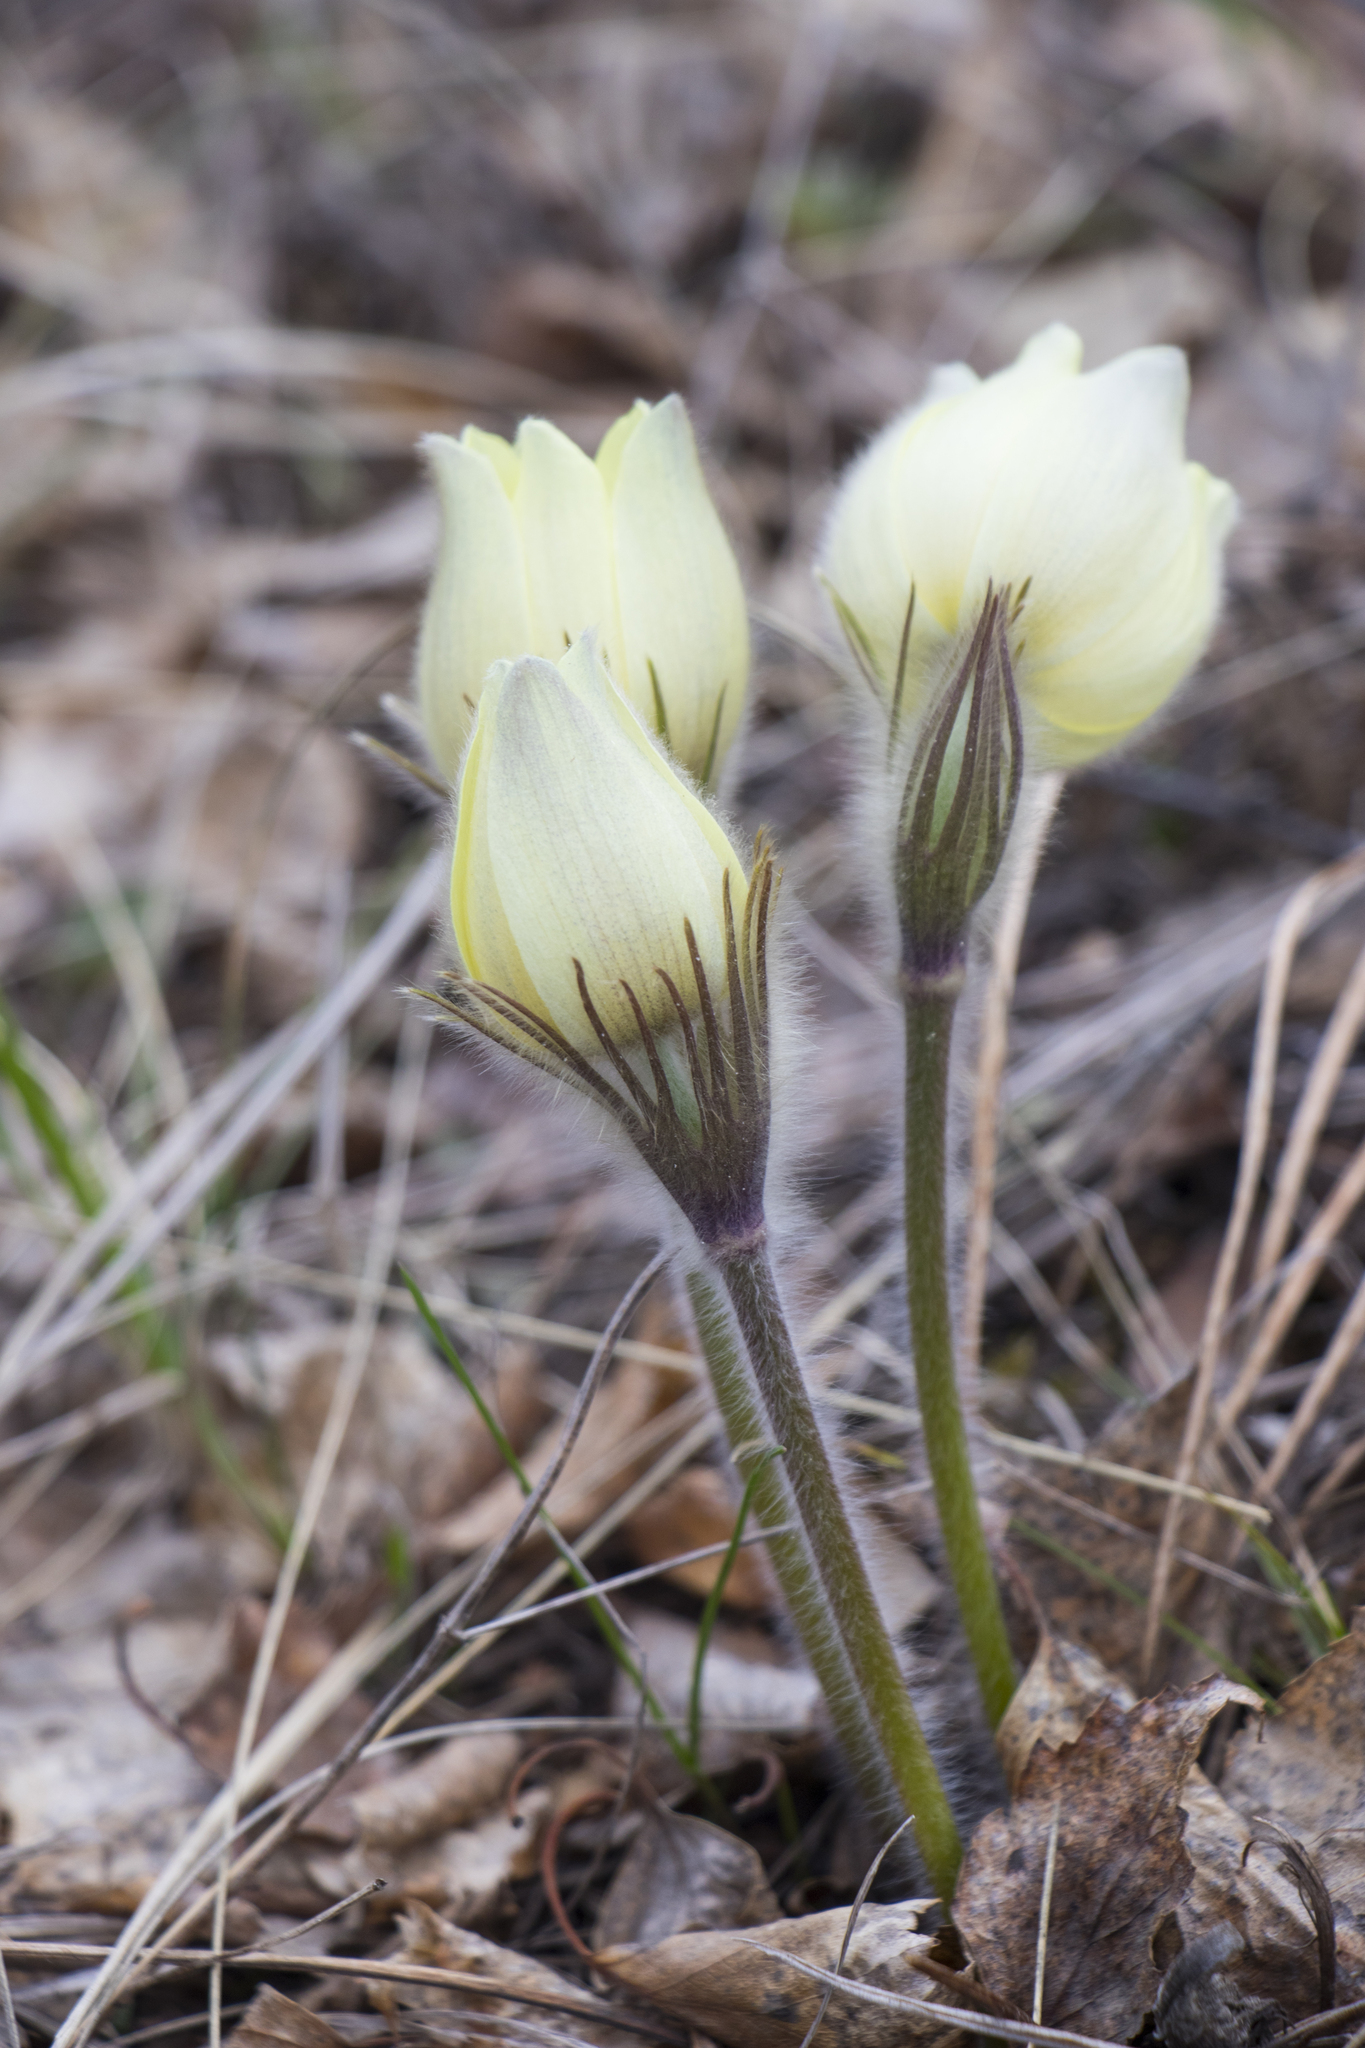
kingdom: Plantae
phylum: Tracheophyta
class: Magnoliopsida
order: Ranunculales
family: Ranunculaceae
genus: Pulsatilla
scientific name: Pulsatilla patens
